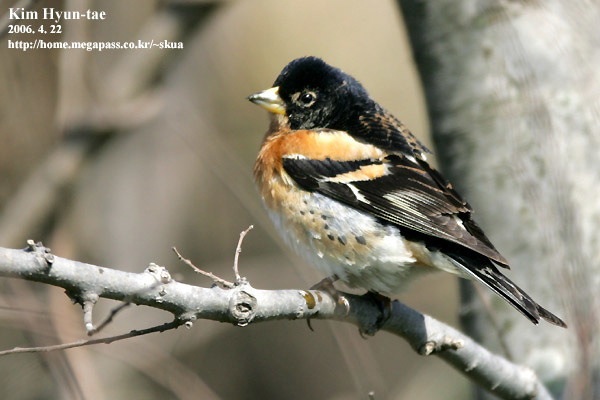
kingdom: Animalia
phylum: Chordata
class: Aves
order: Passeriformes
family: Fringillidae
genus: Fringilla
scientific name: Fringilla montifringilla
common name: Brambling
